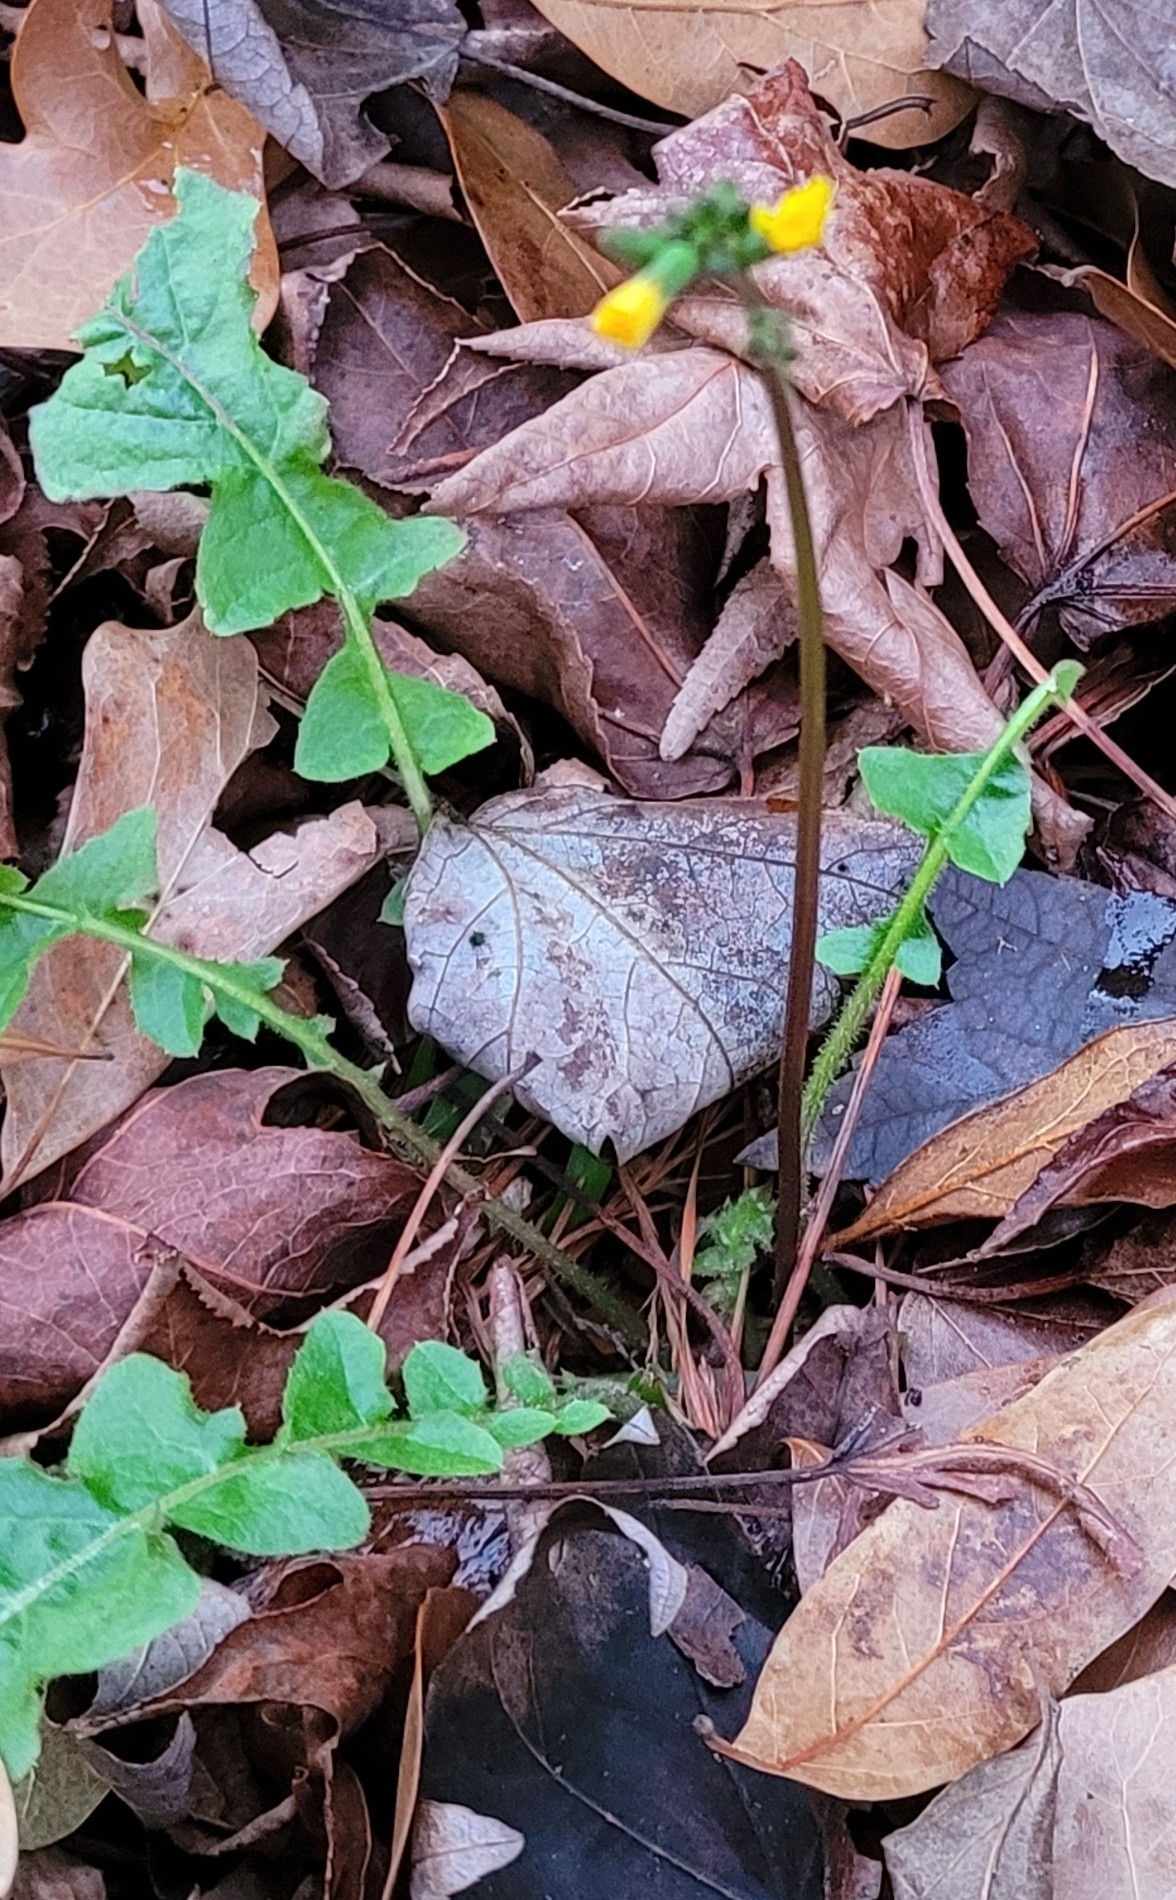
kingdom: Plantae
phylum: Tracheophyta
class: Magnoliopsida
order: Asterales
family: Asteraceae
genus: Youngia
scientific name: Youngia japonica
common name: Oriental false hawksbeard
